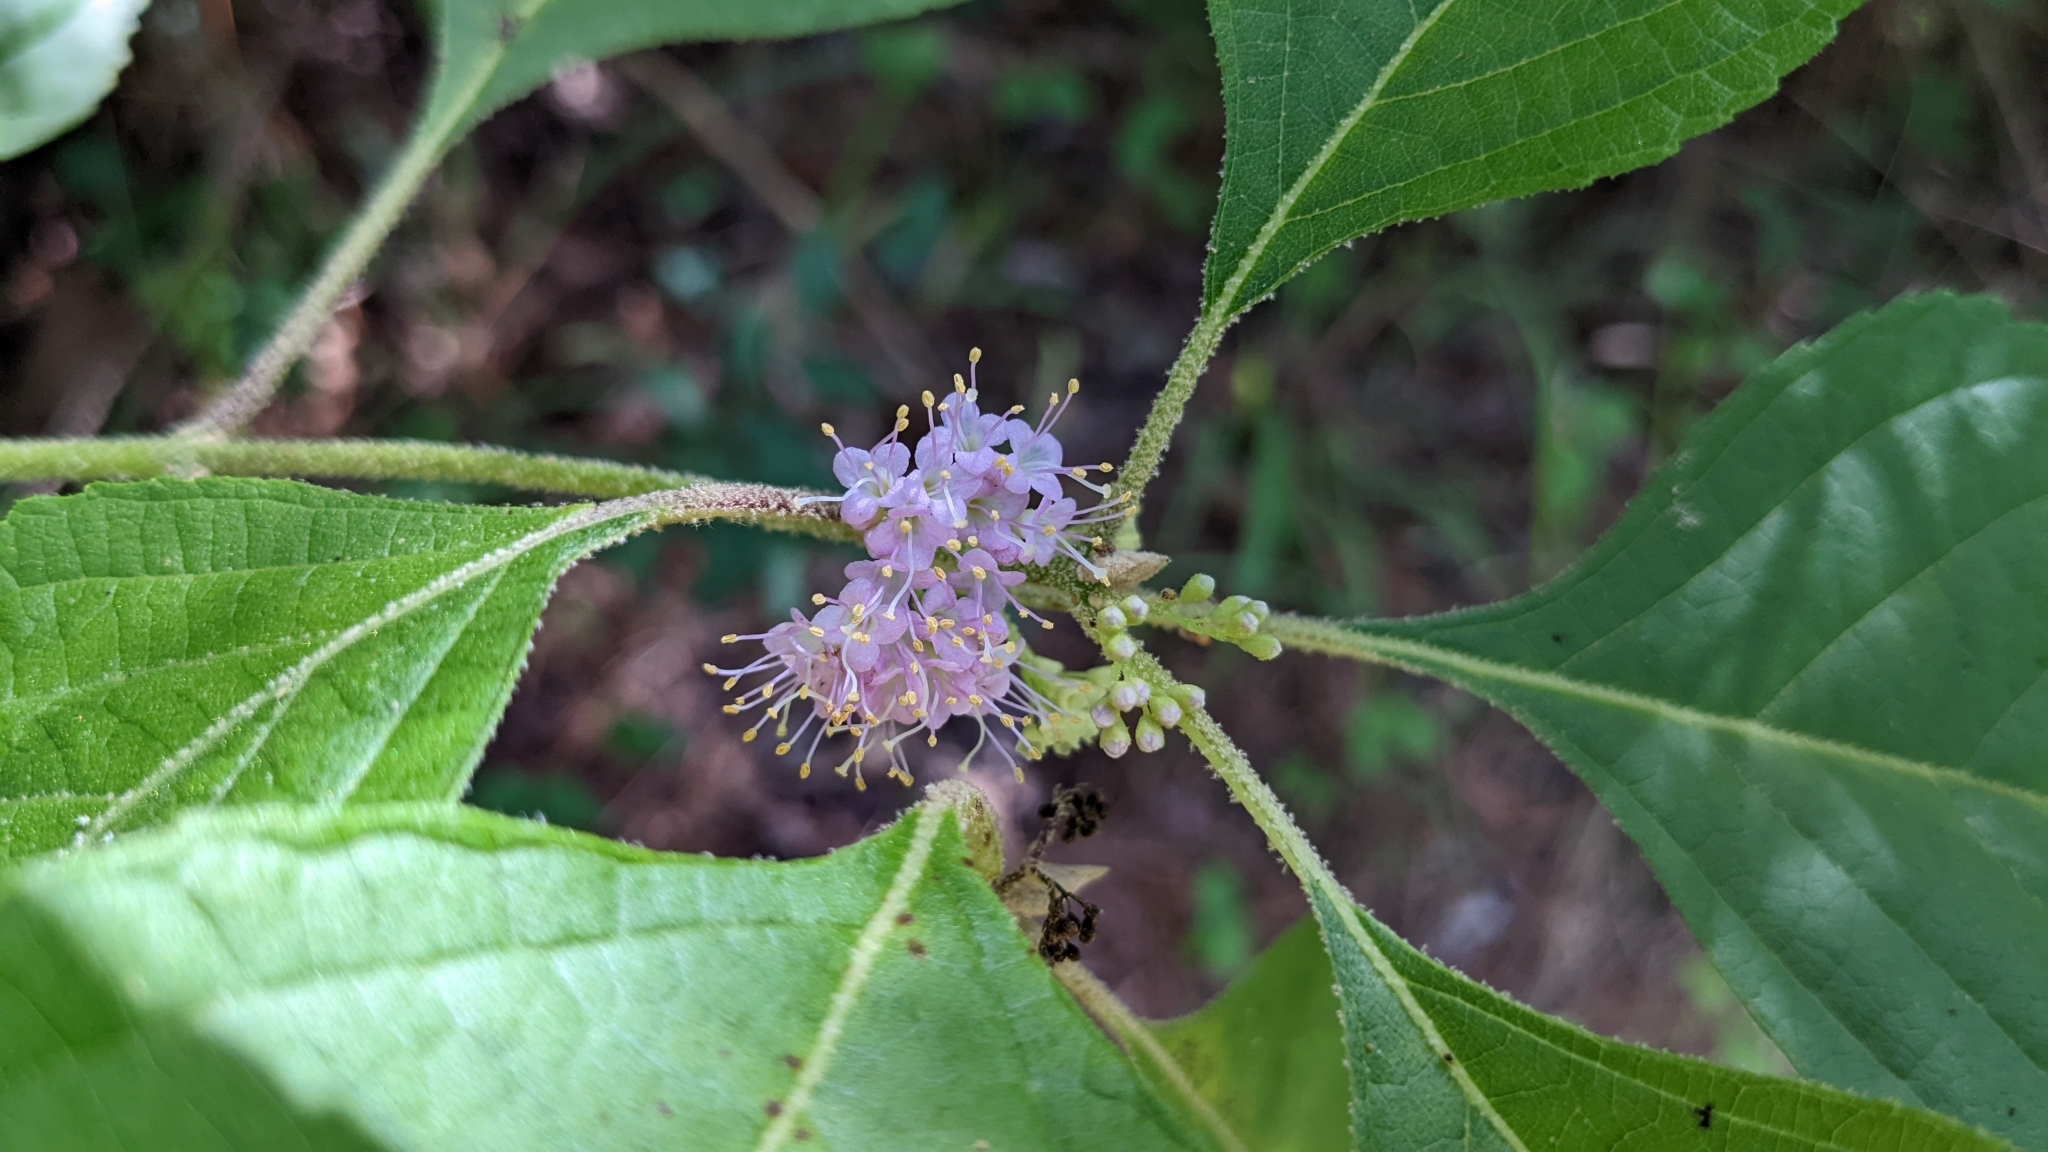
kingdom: Plantae
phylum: Tracheophyta
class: Magnoliopsida
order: Lamiales
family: Lamiaceae
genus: Callicarpa
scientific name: Callicarpa americana
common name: American beautyberry
